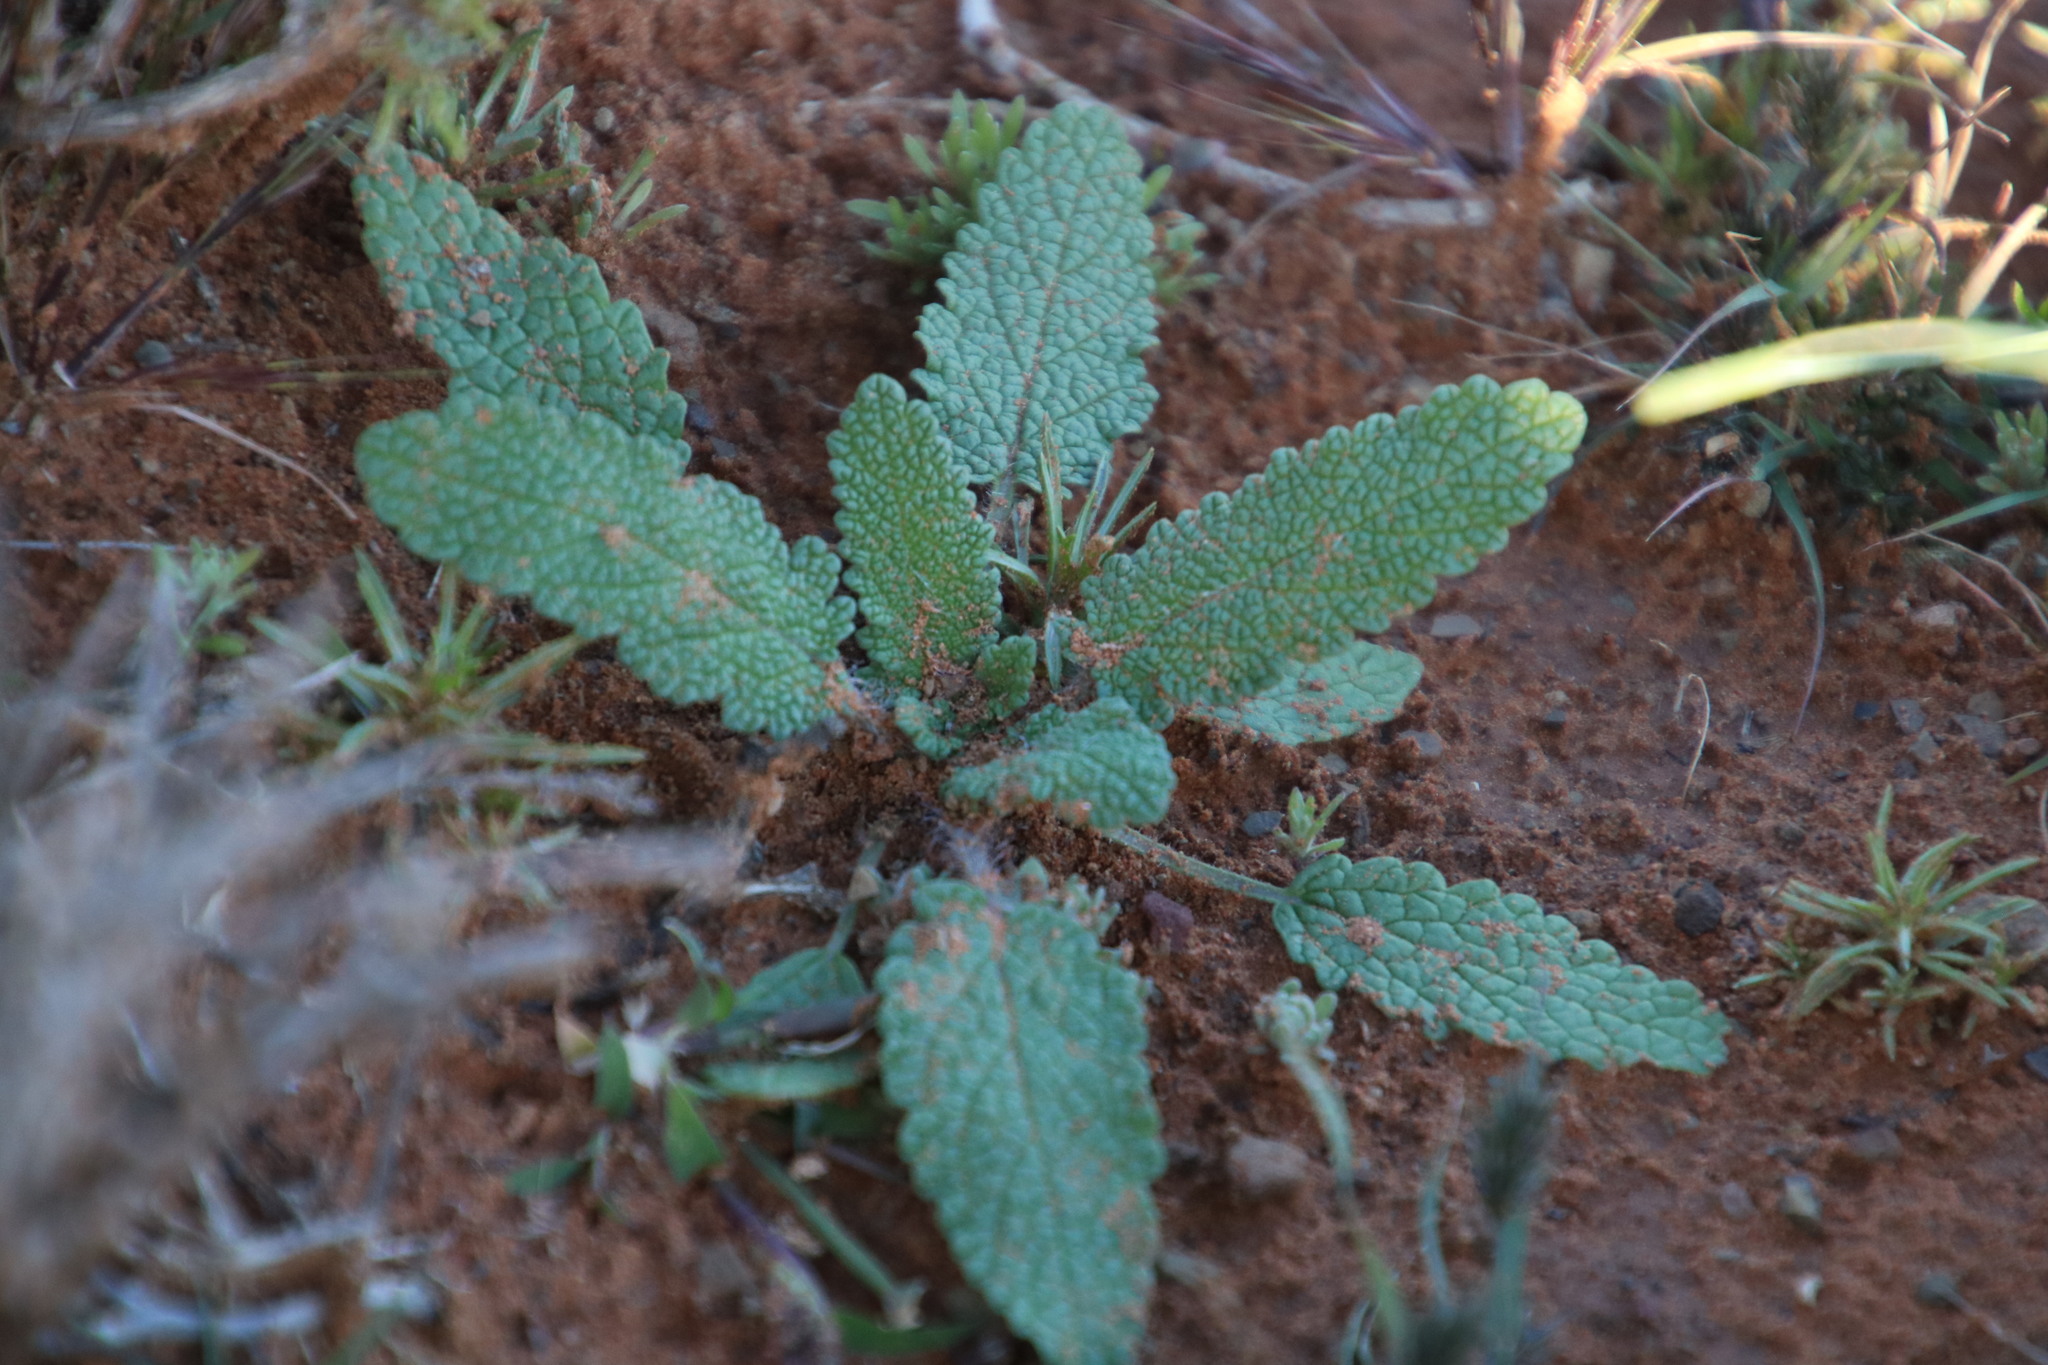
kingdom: Plantae
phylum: Tracheophyta
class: Magnoliopsida
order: Lamiales
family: Lamiaceae
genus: Salvia
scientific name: Salvia disermas
